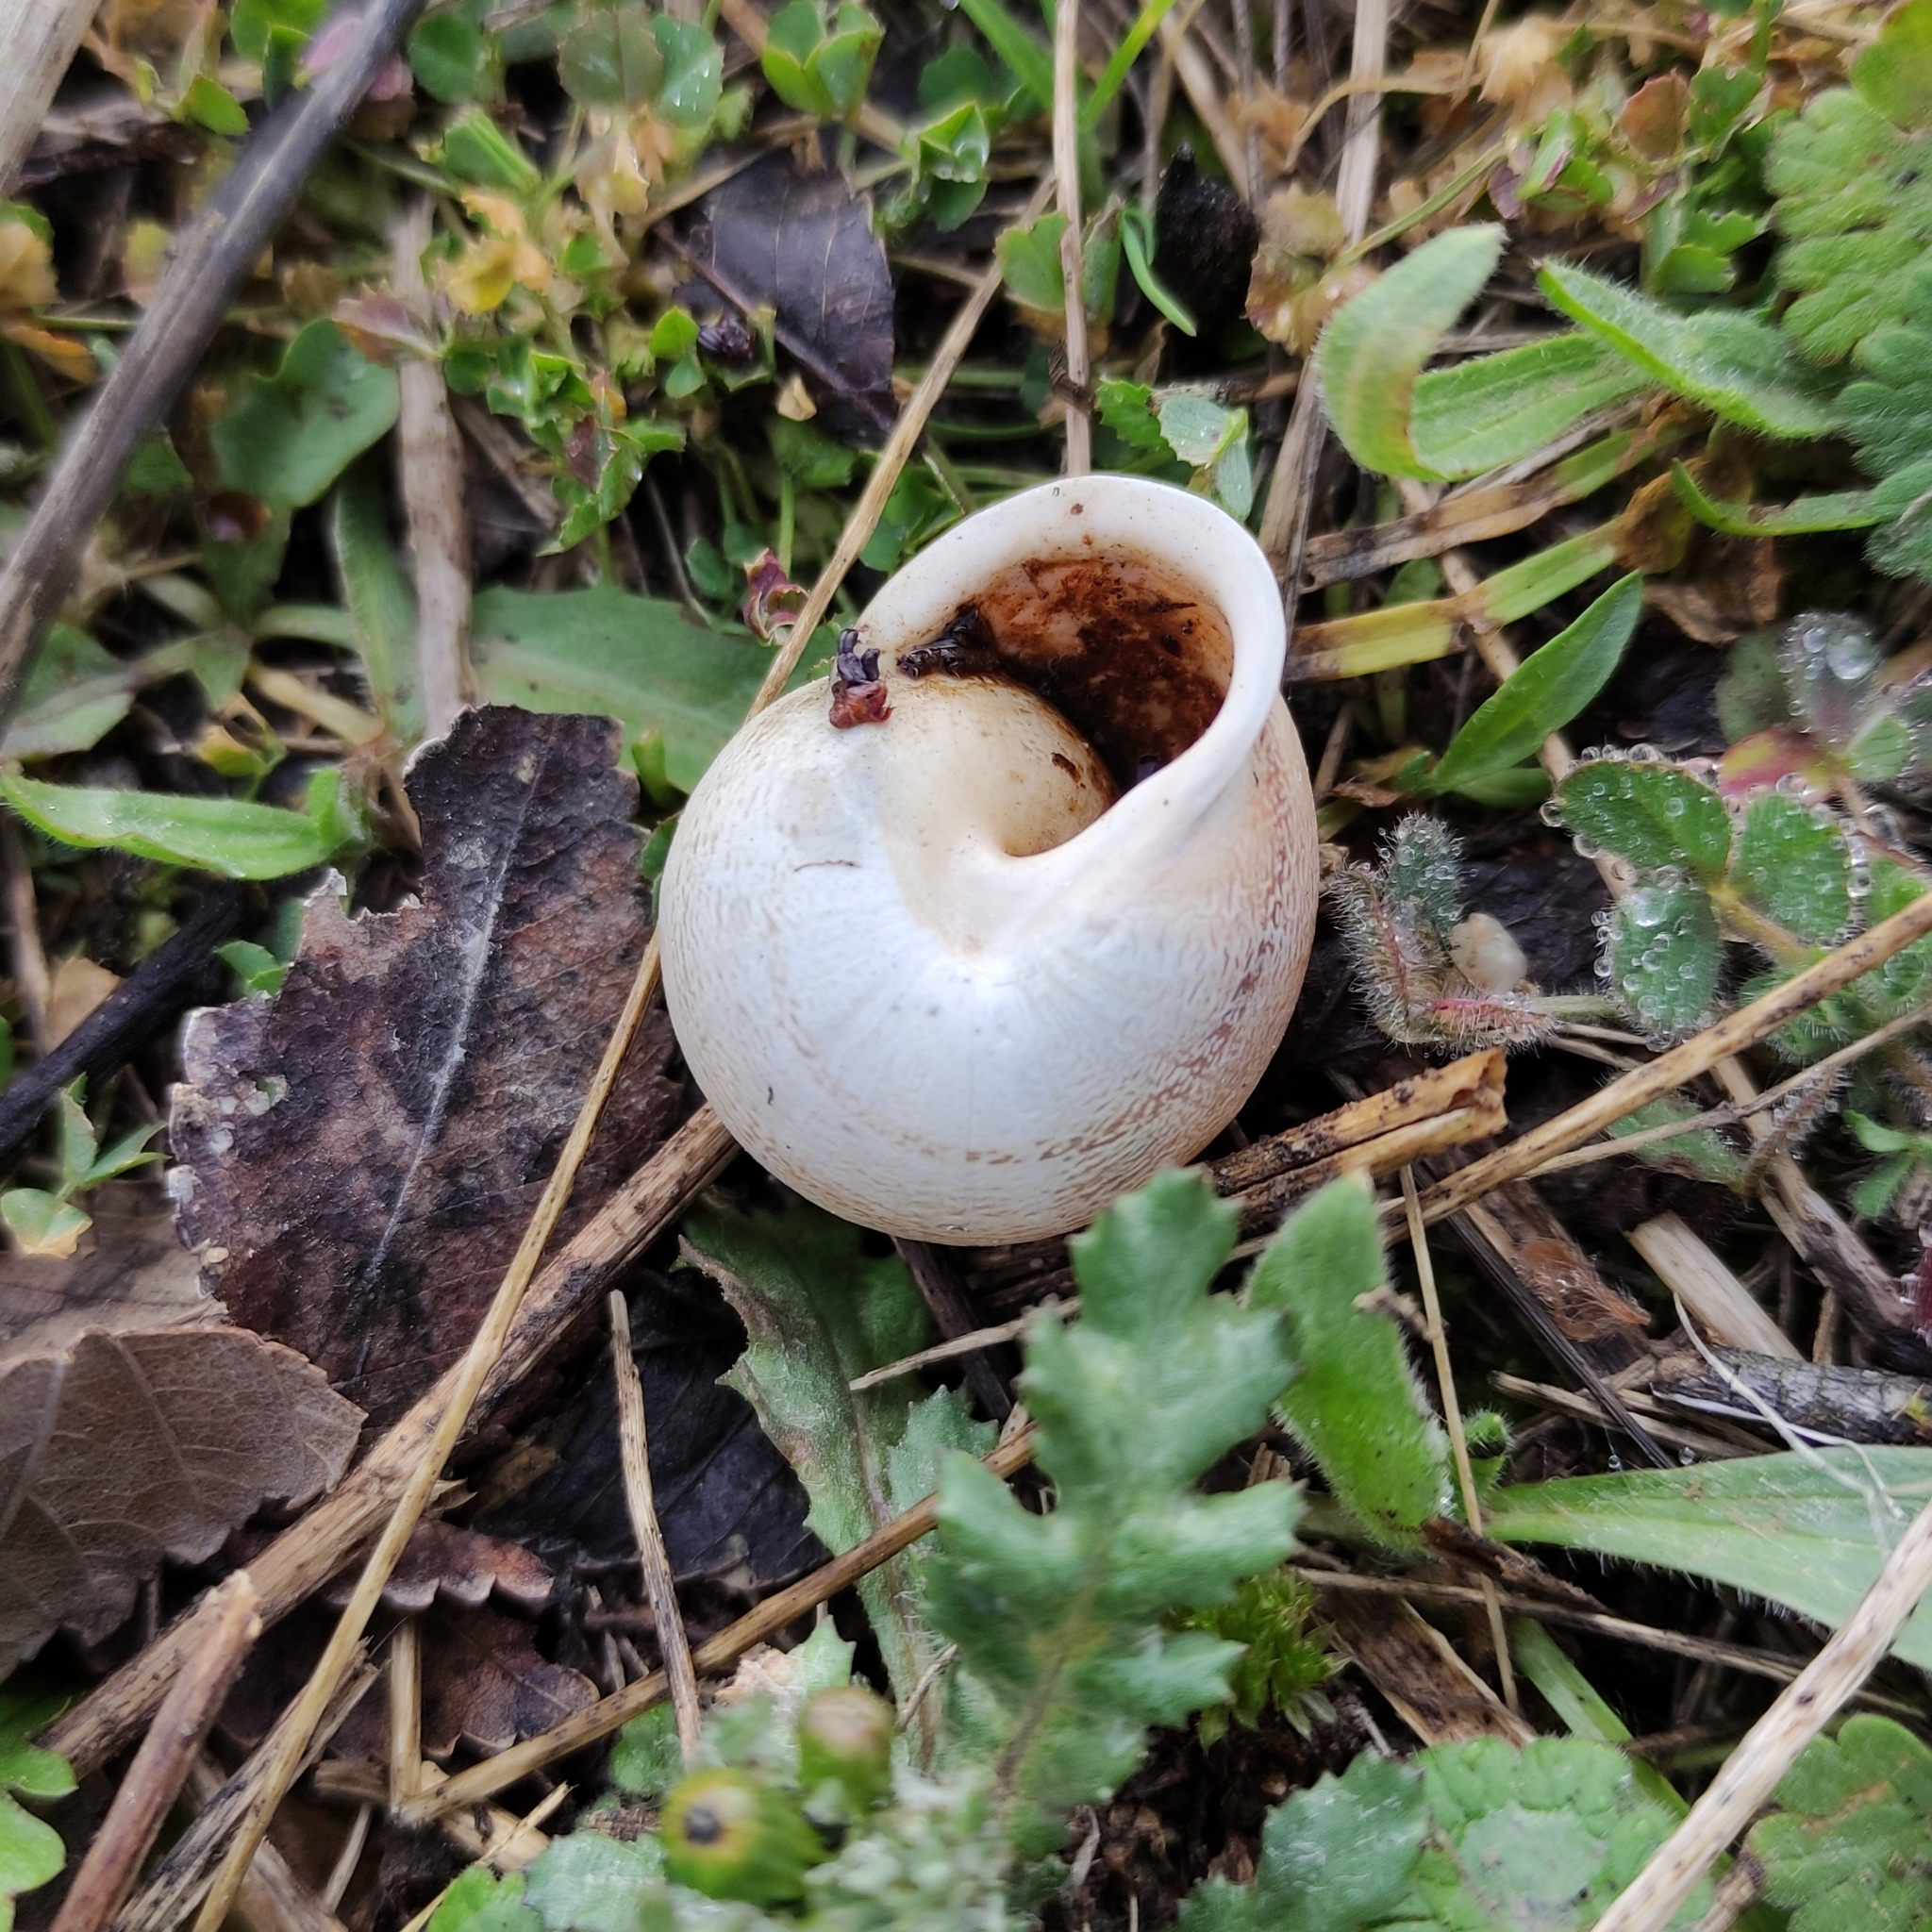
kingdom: Animalia
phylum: Mollusca
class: Gastropoda
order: Stylommatophora
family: Helicidae
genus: Eobania
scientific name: Eobania vermiculata
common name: Chocolateband snail
